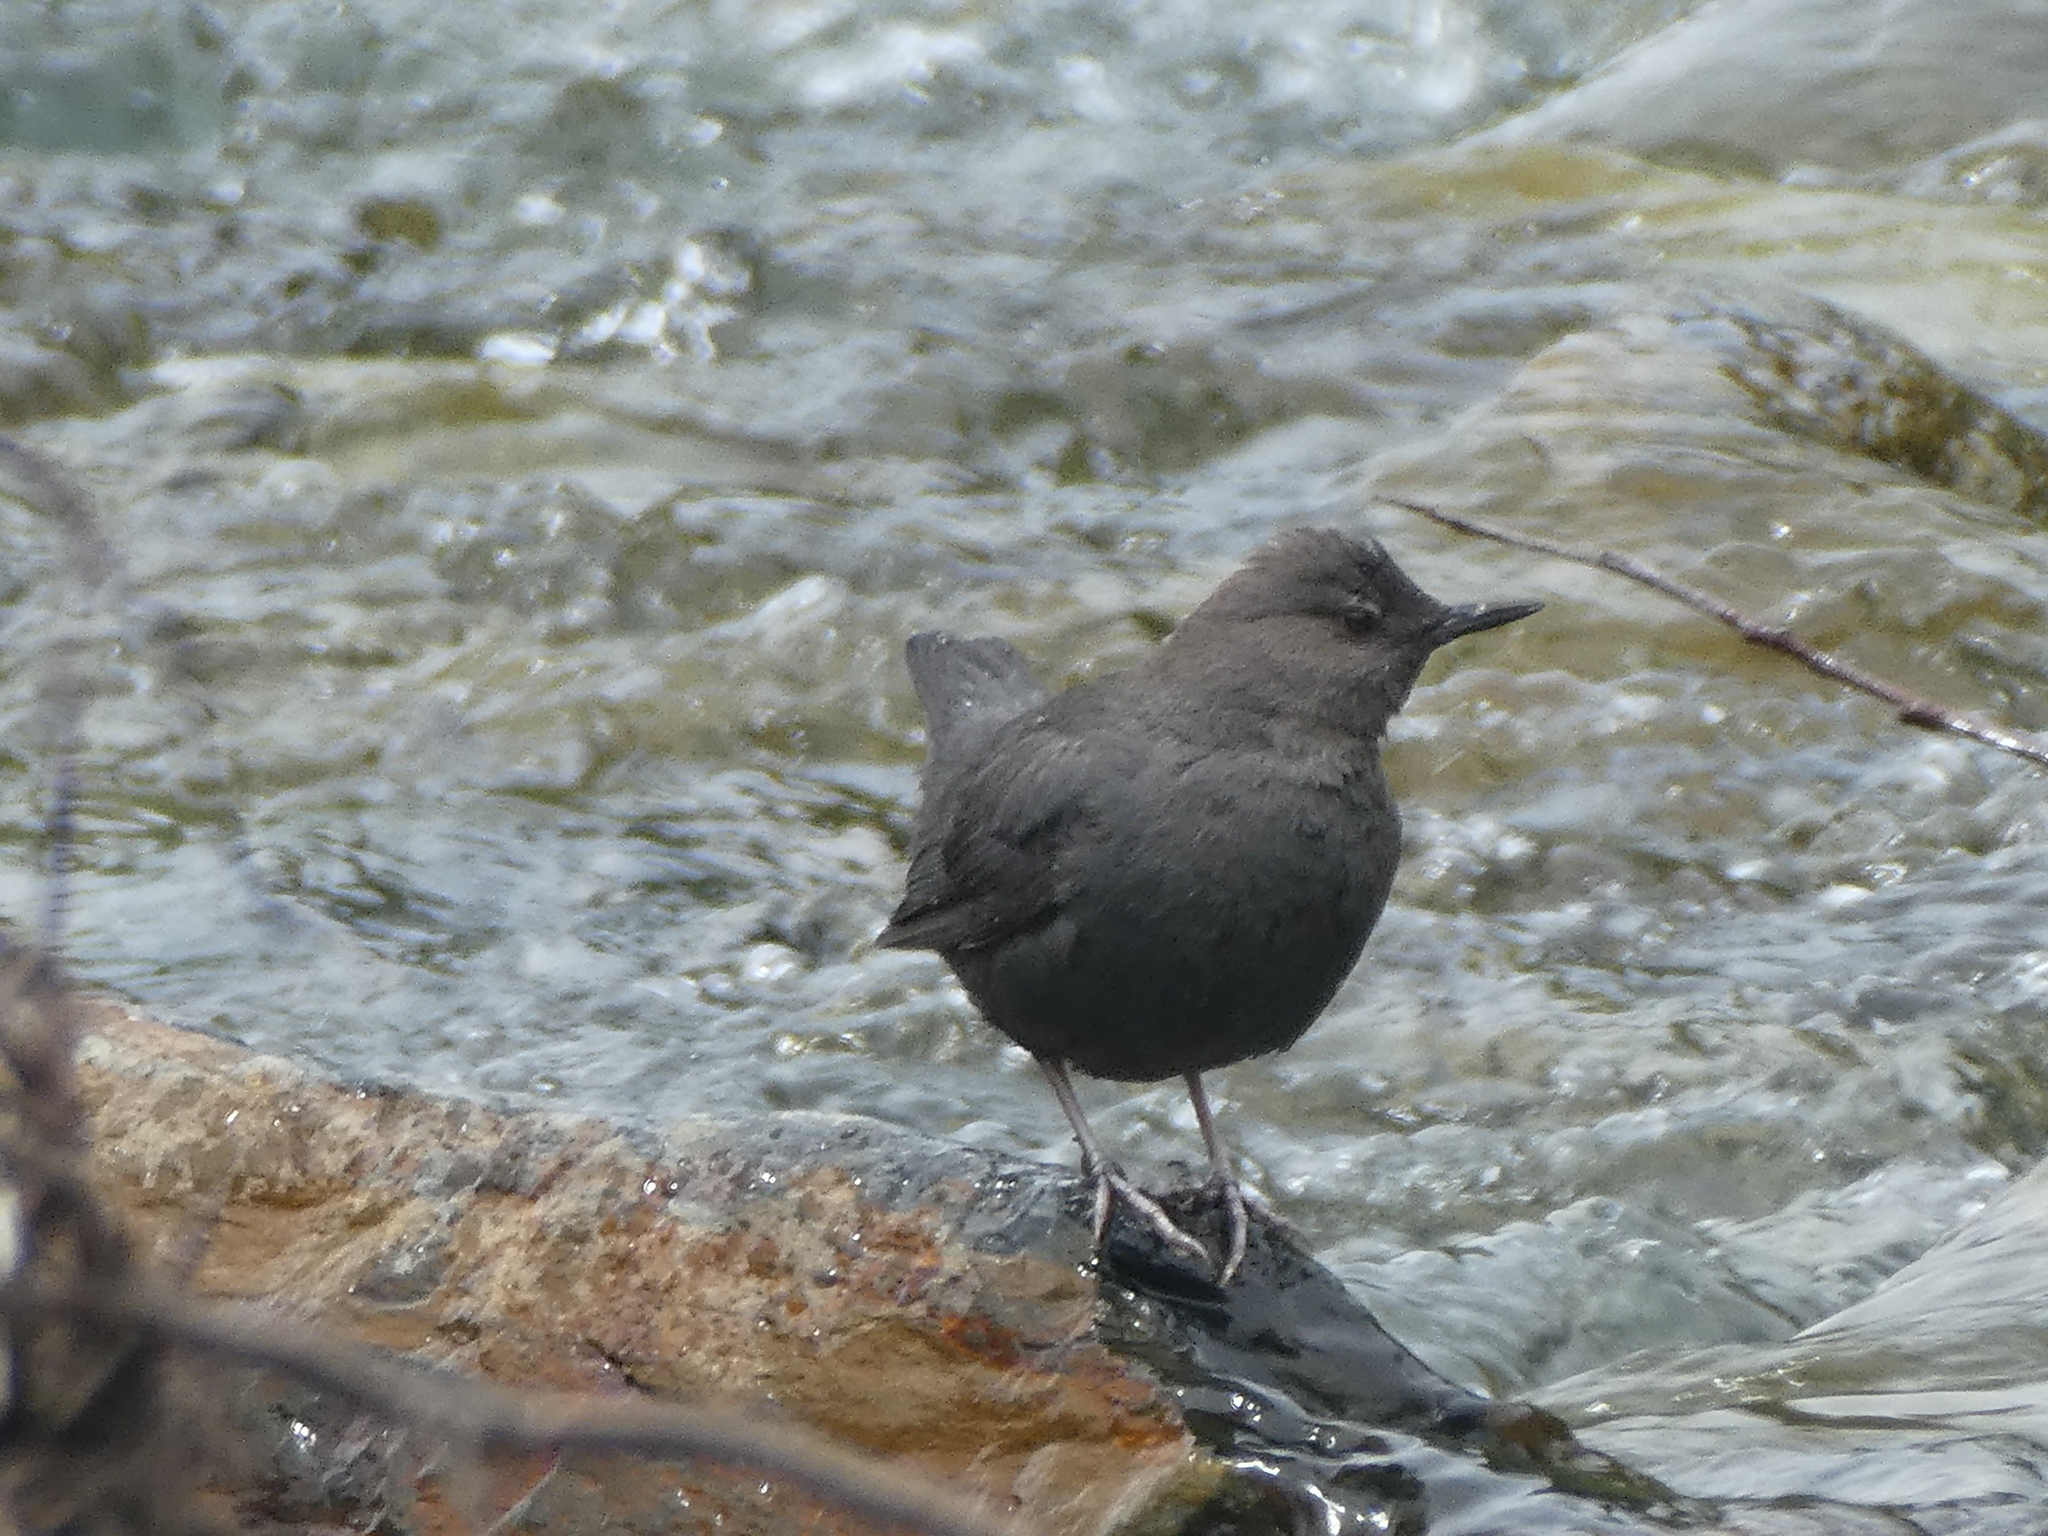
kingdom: Animalia
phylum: Chordata
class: Aves
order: Passeriformes
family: Cinclidae
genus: Cinclus
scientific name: Cinclus mexicanus
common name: American dipper
